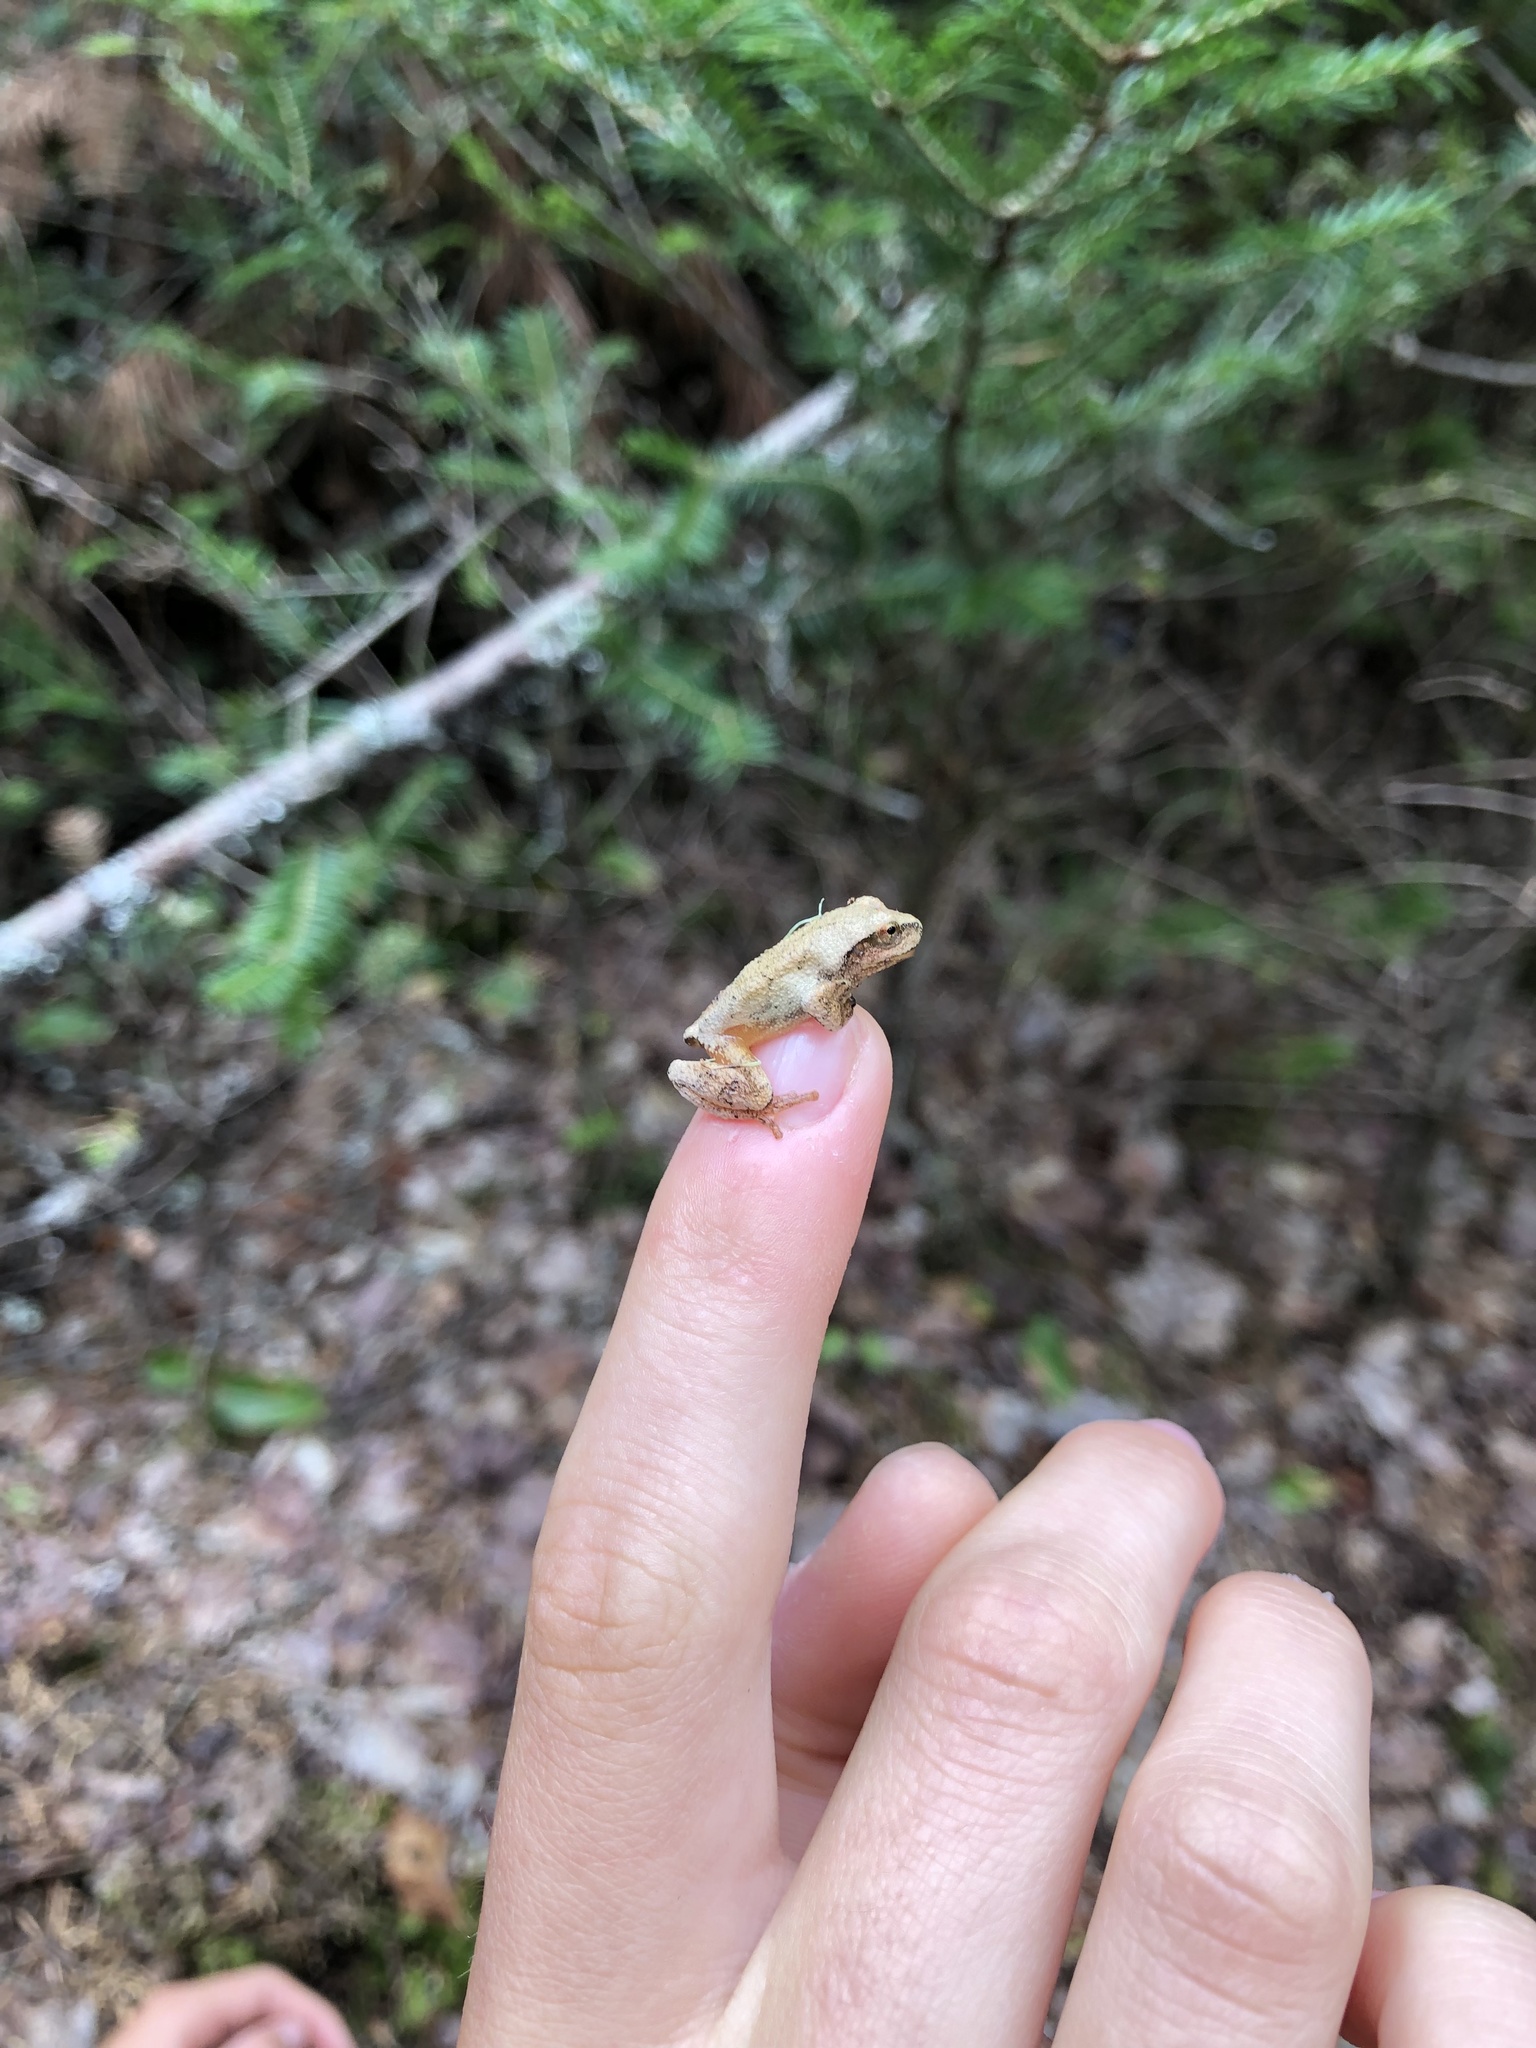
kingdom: Animalia
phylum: Chordata
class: Amphibia
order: Anura
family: Hylidae
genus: Pseudacris
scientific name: Pseudacris crucifer
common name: Spring peeper
